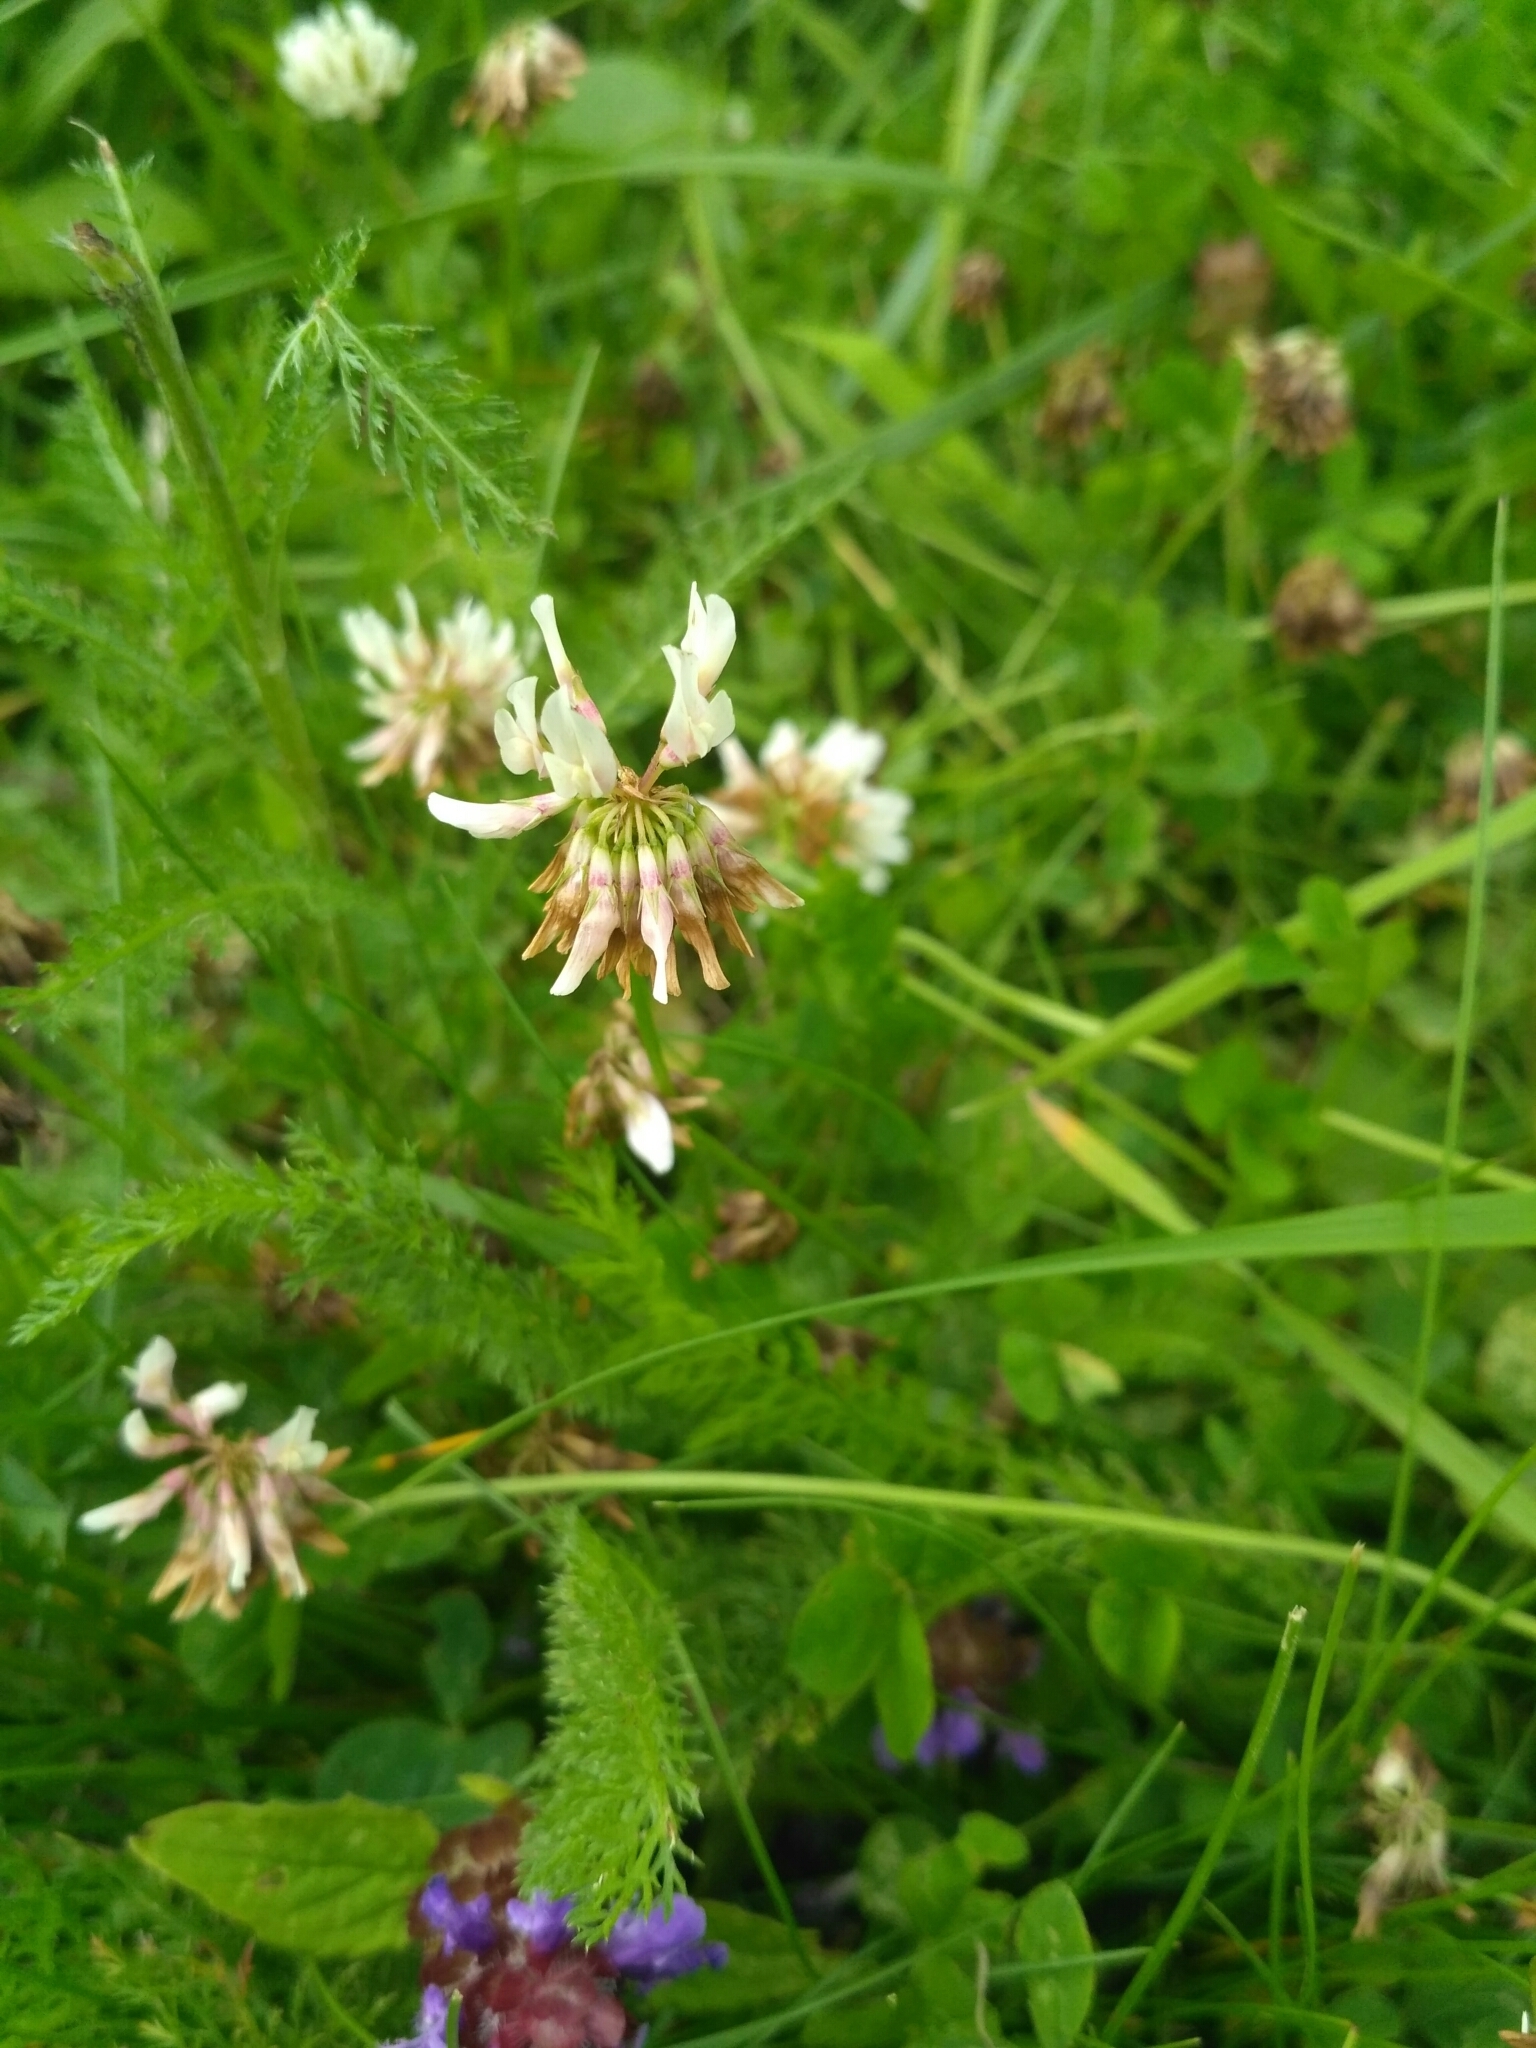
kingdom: Plantae
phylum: Tracheophyta
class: Magnoliopsida
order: Fabales
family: Fabaceae
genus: Trifolium
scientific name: Trifolium repens
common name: White clover
